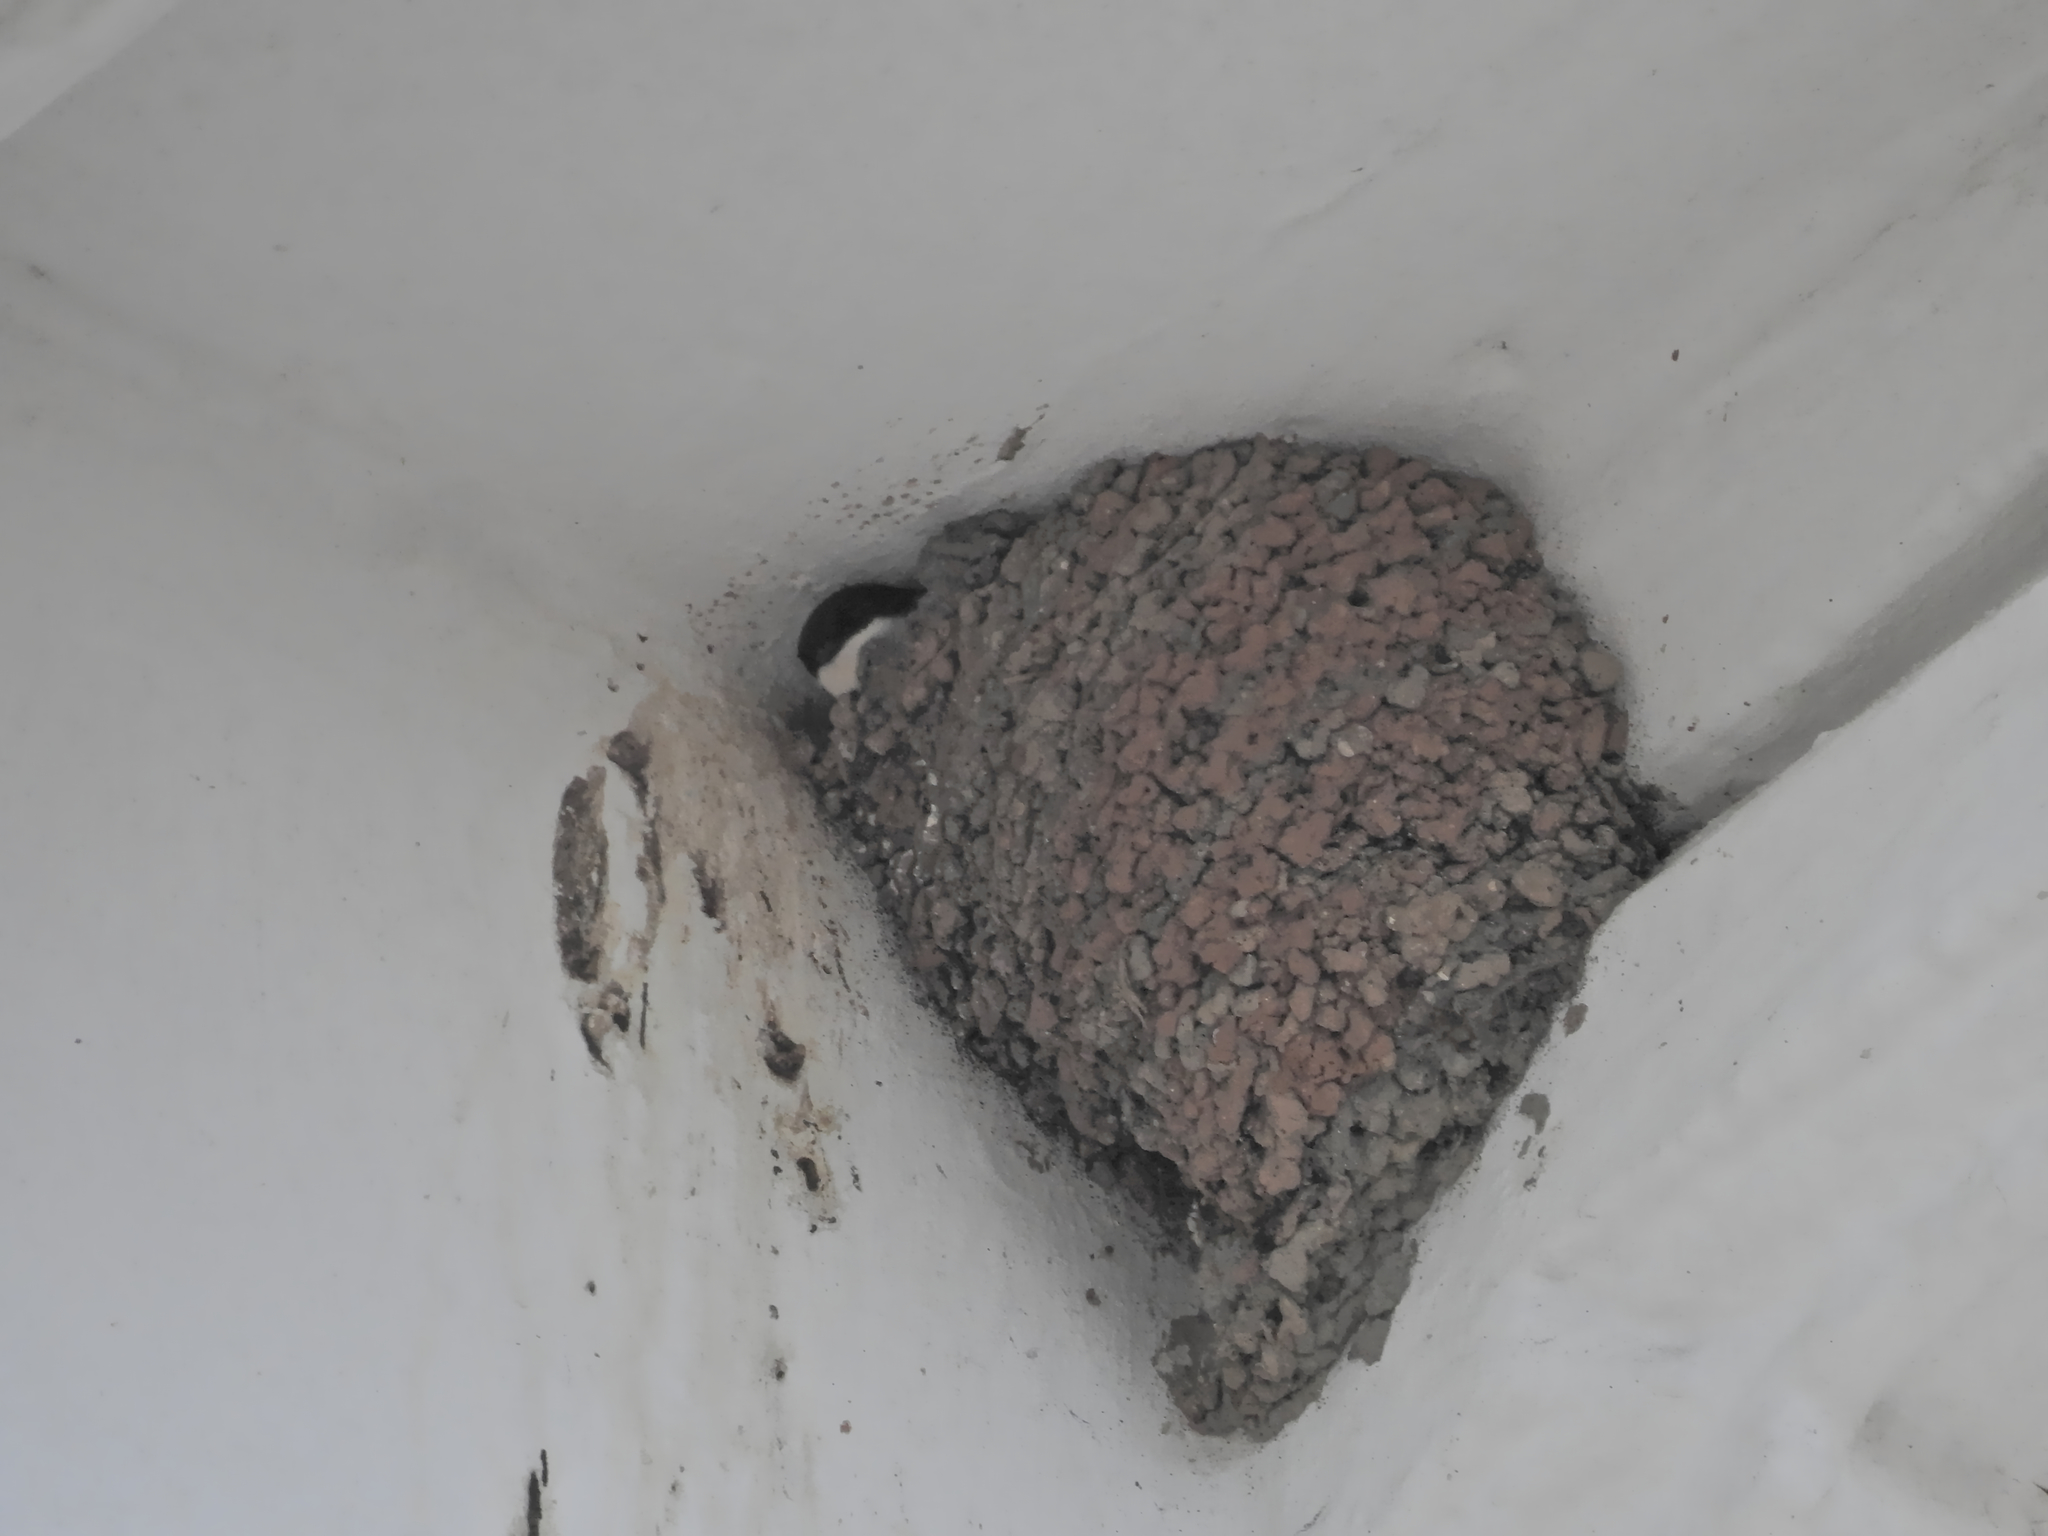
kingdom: Animalia
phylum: Chordata
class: Aves
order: Passeriformes
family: Hirundinidae
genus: Delichon
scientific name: Delichon urbicum
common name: Common house martin
